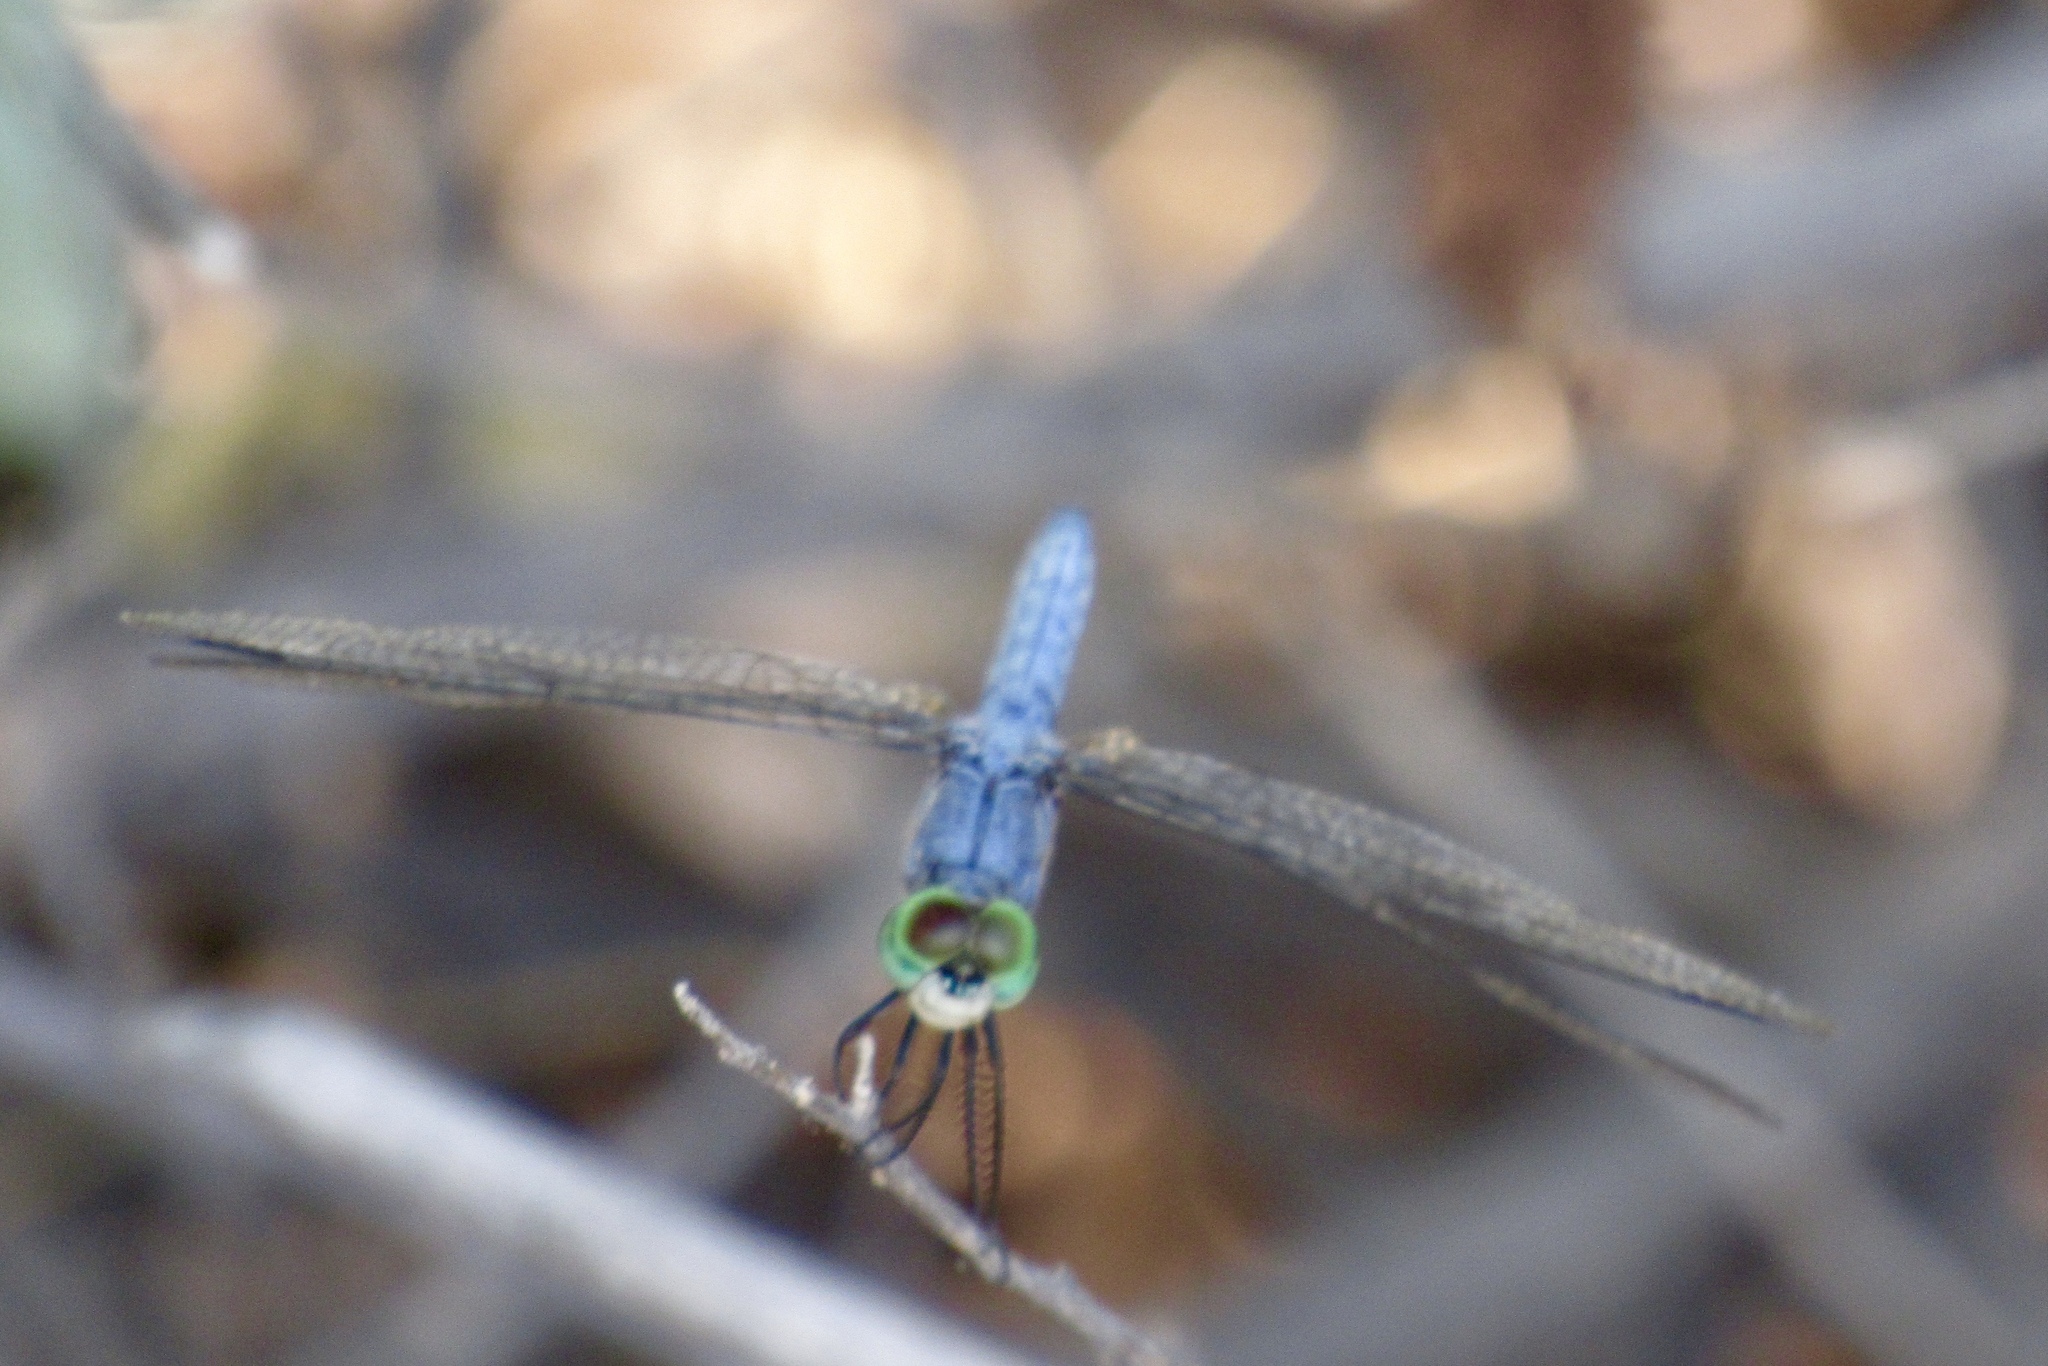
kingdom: Animalia
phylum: Arthropoda
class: Insecta
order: Odonata
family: Libellulidae
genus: Pachydiplax
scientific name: Pachydiplax longipennis
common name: Blue dasher
